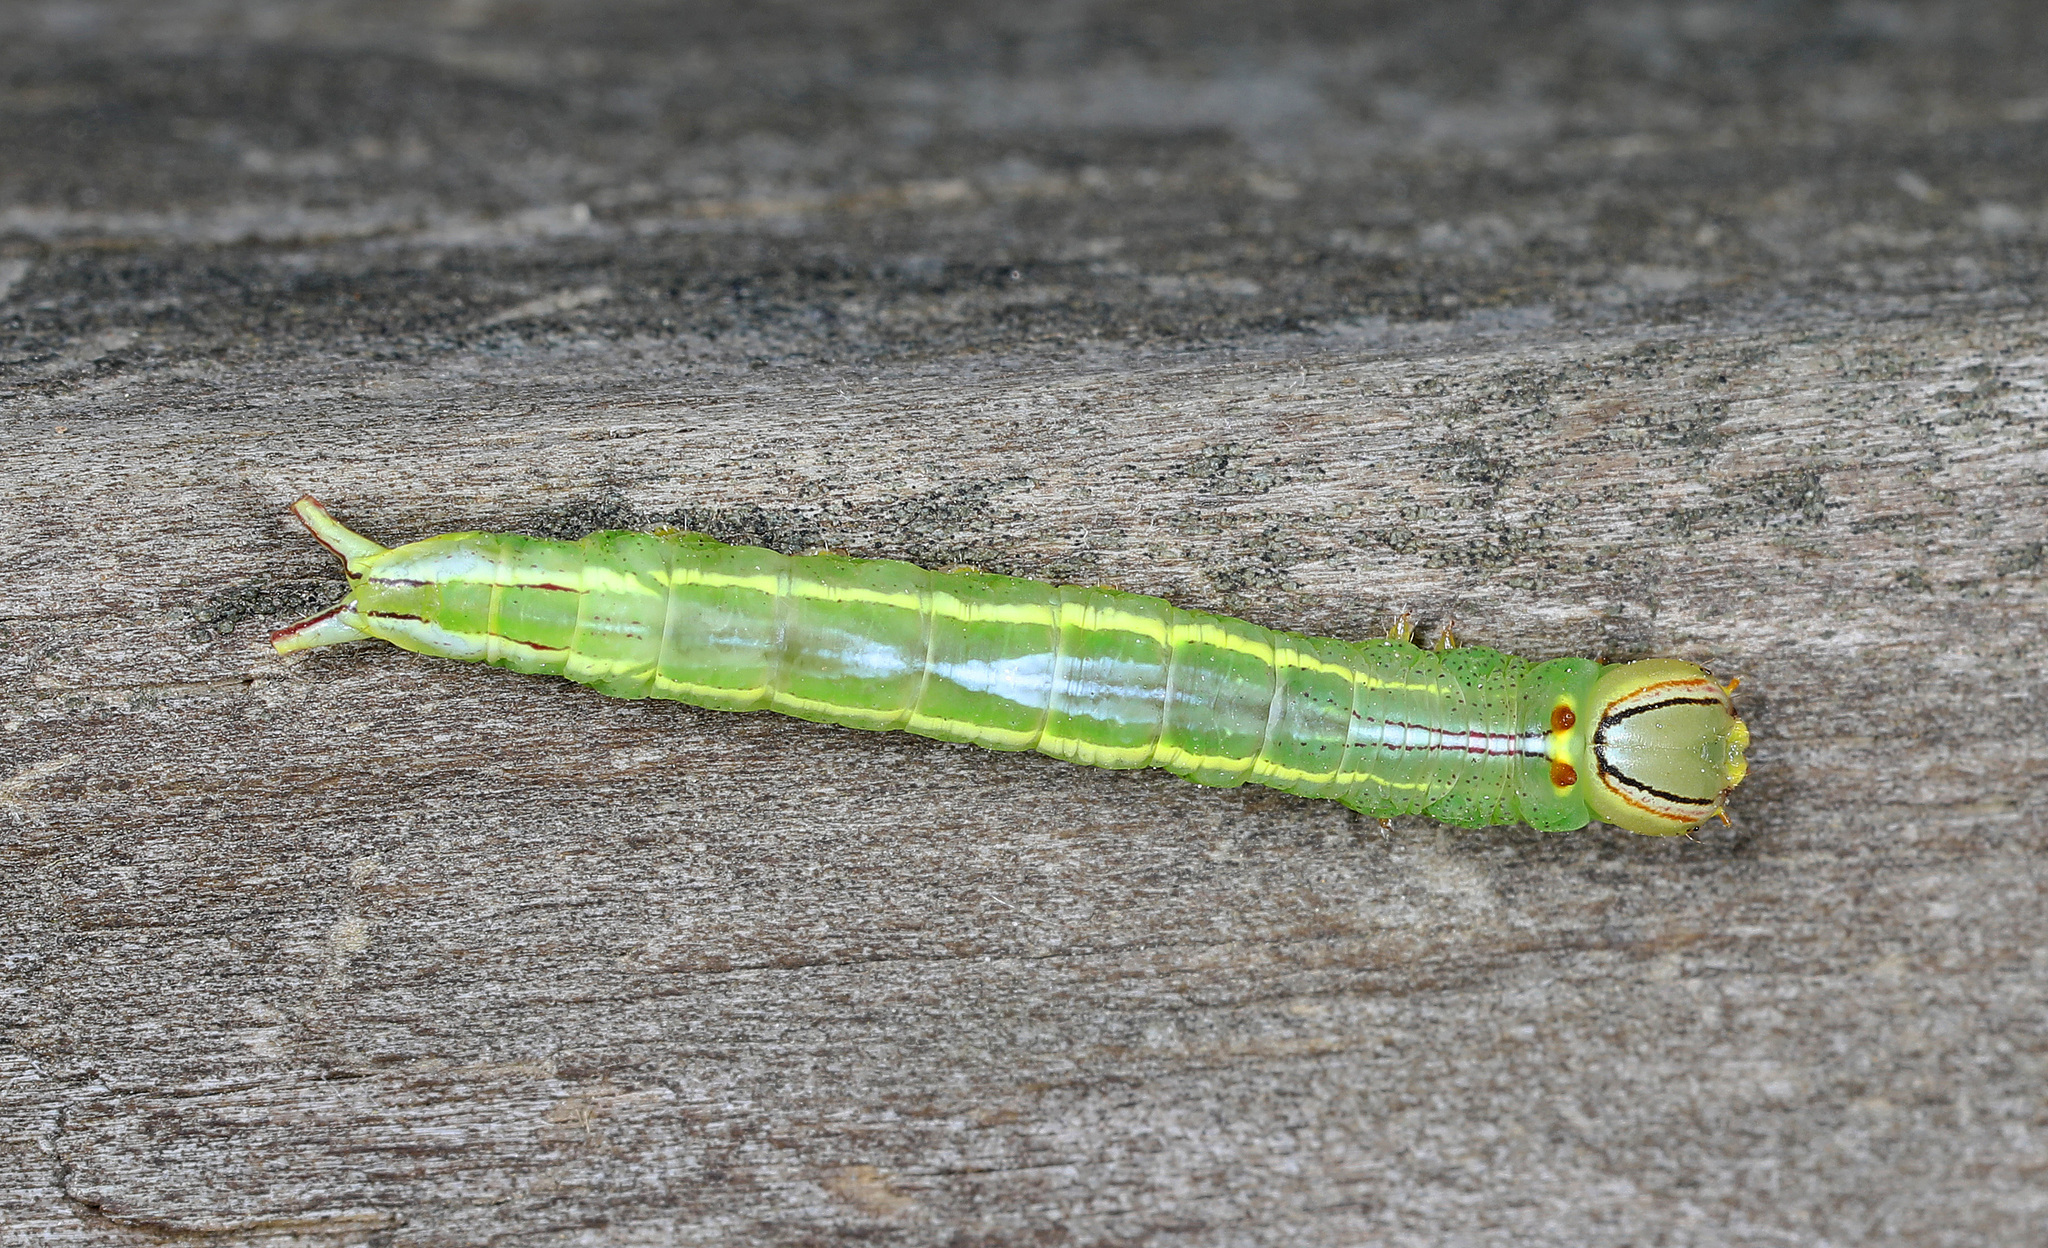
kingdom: Animalia
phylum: Arthropoda
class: Insecta
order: Lepidoptera
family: Notodontidae
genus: Disphragis
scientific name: Disphragis Cecrita guttivitta
